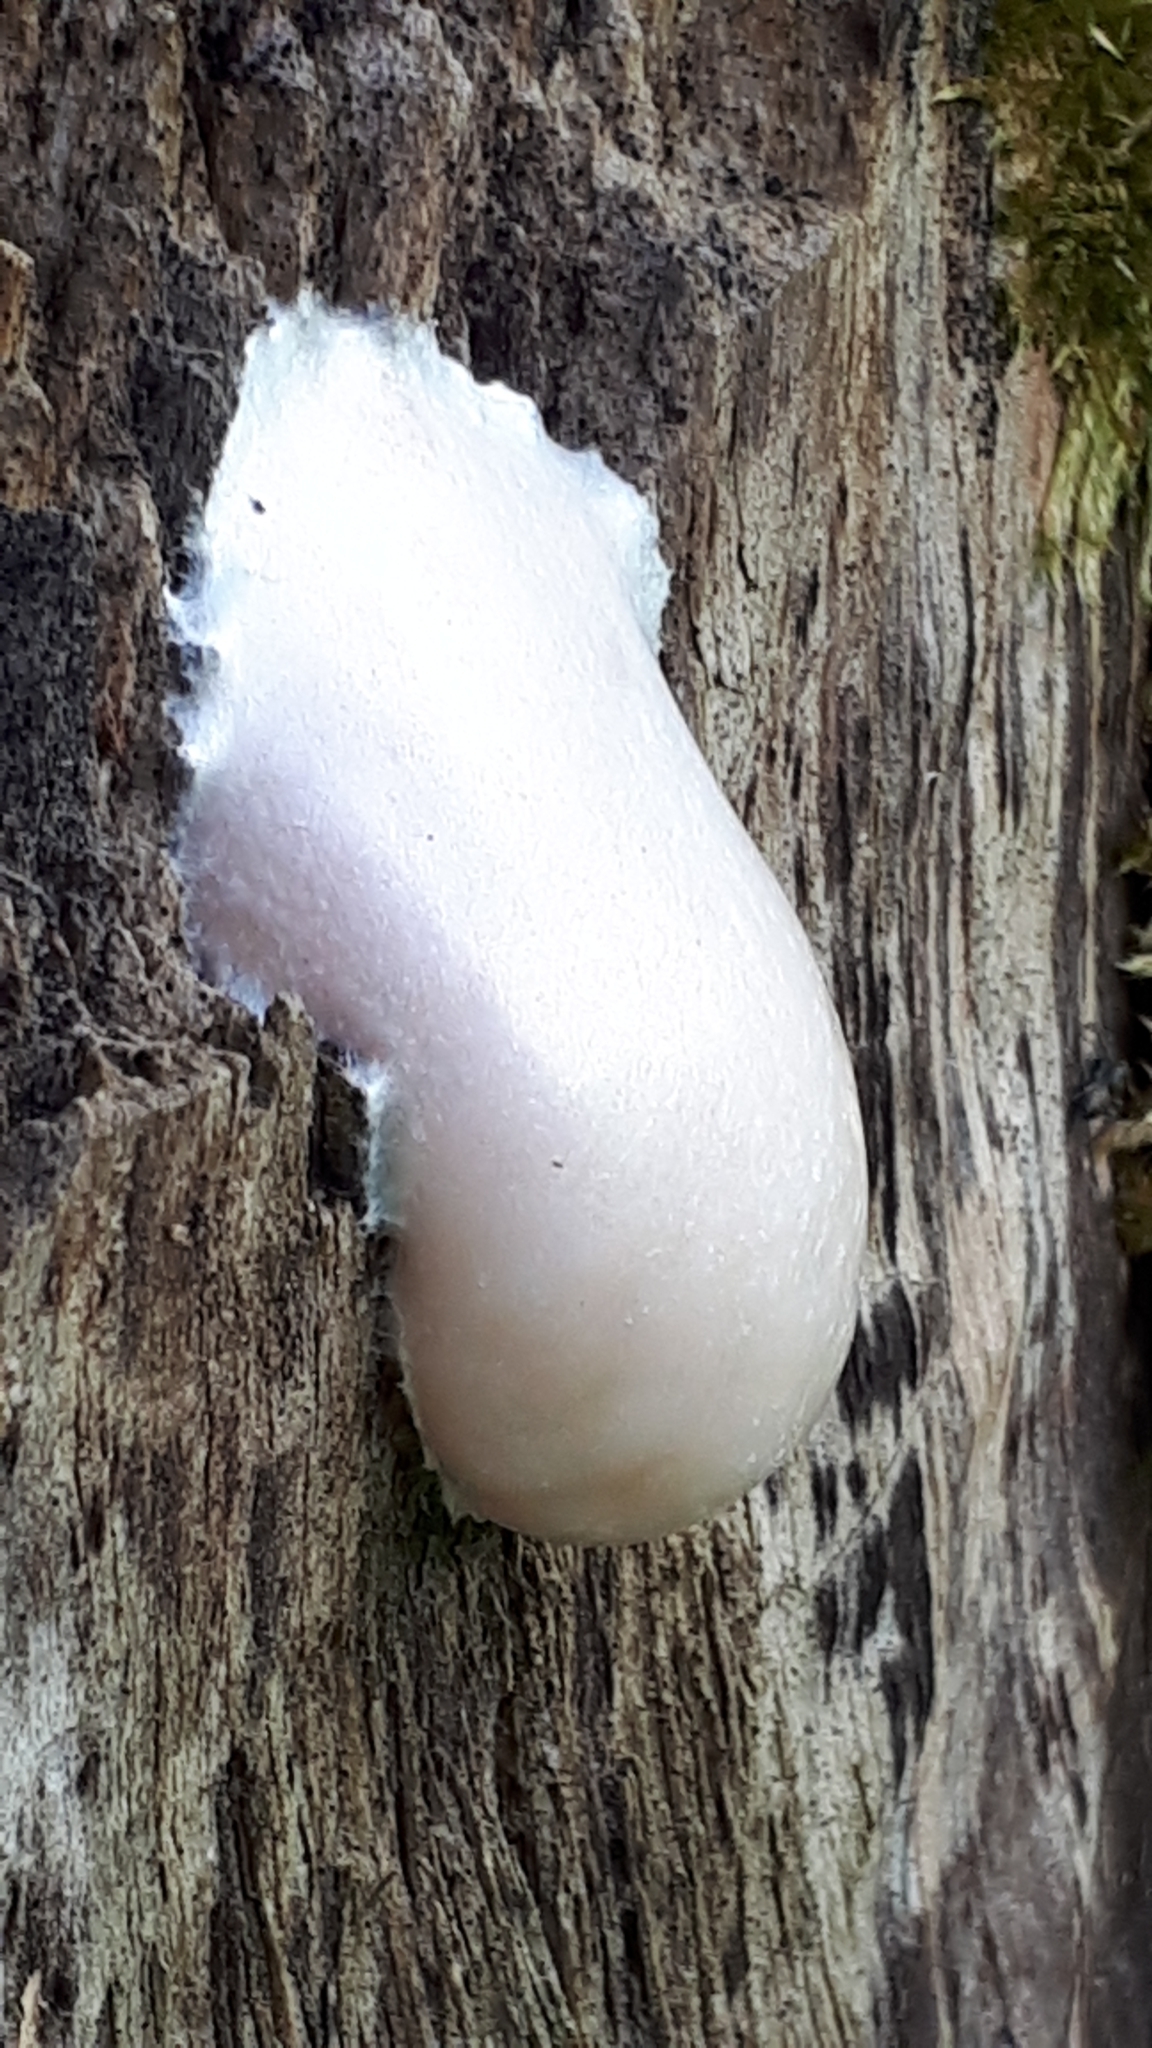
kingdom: Protozoa
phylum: Mycetozoa
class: Myxomycetes
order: Cribrariales
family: Tubiferaceae
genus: Reticularia
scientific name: Reticularia lycoperdon
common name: False puffball
